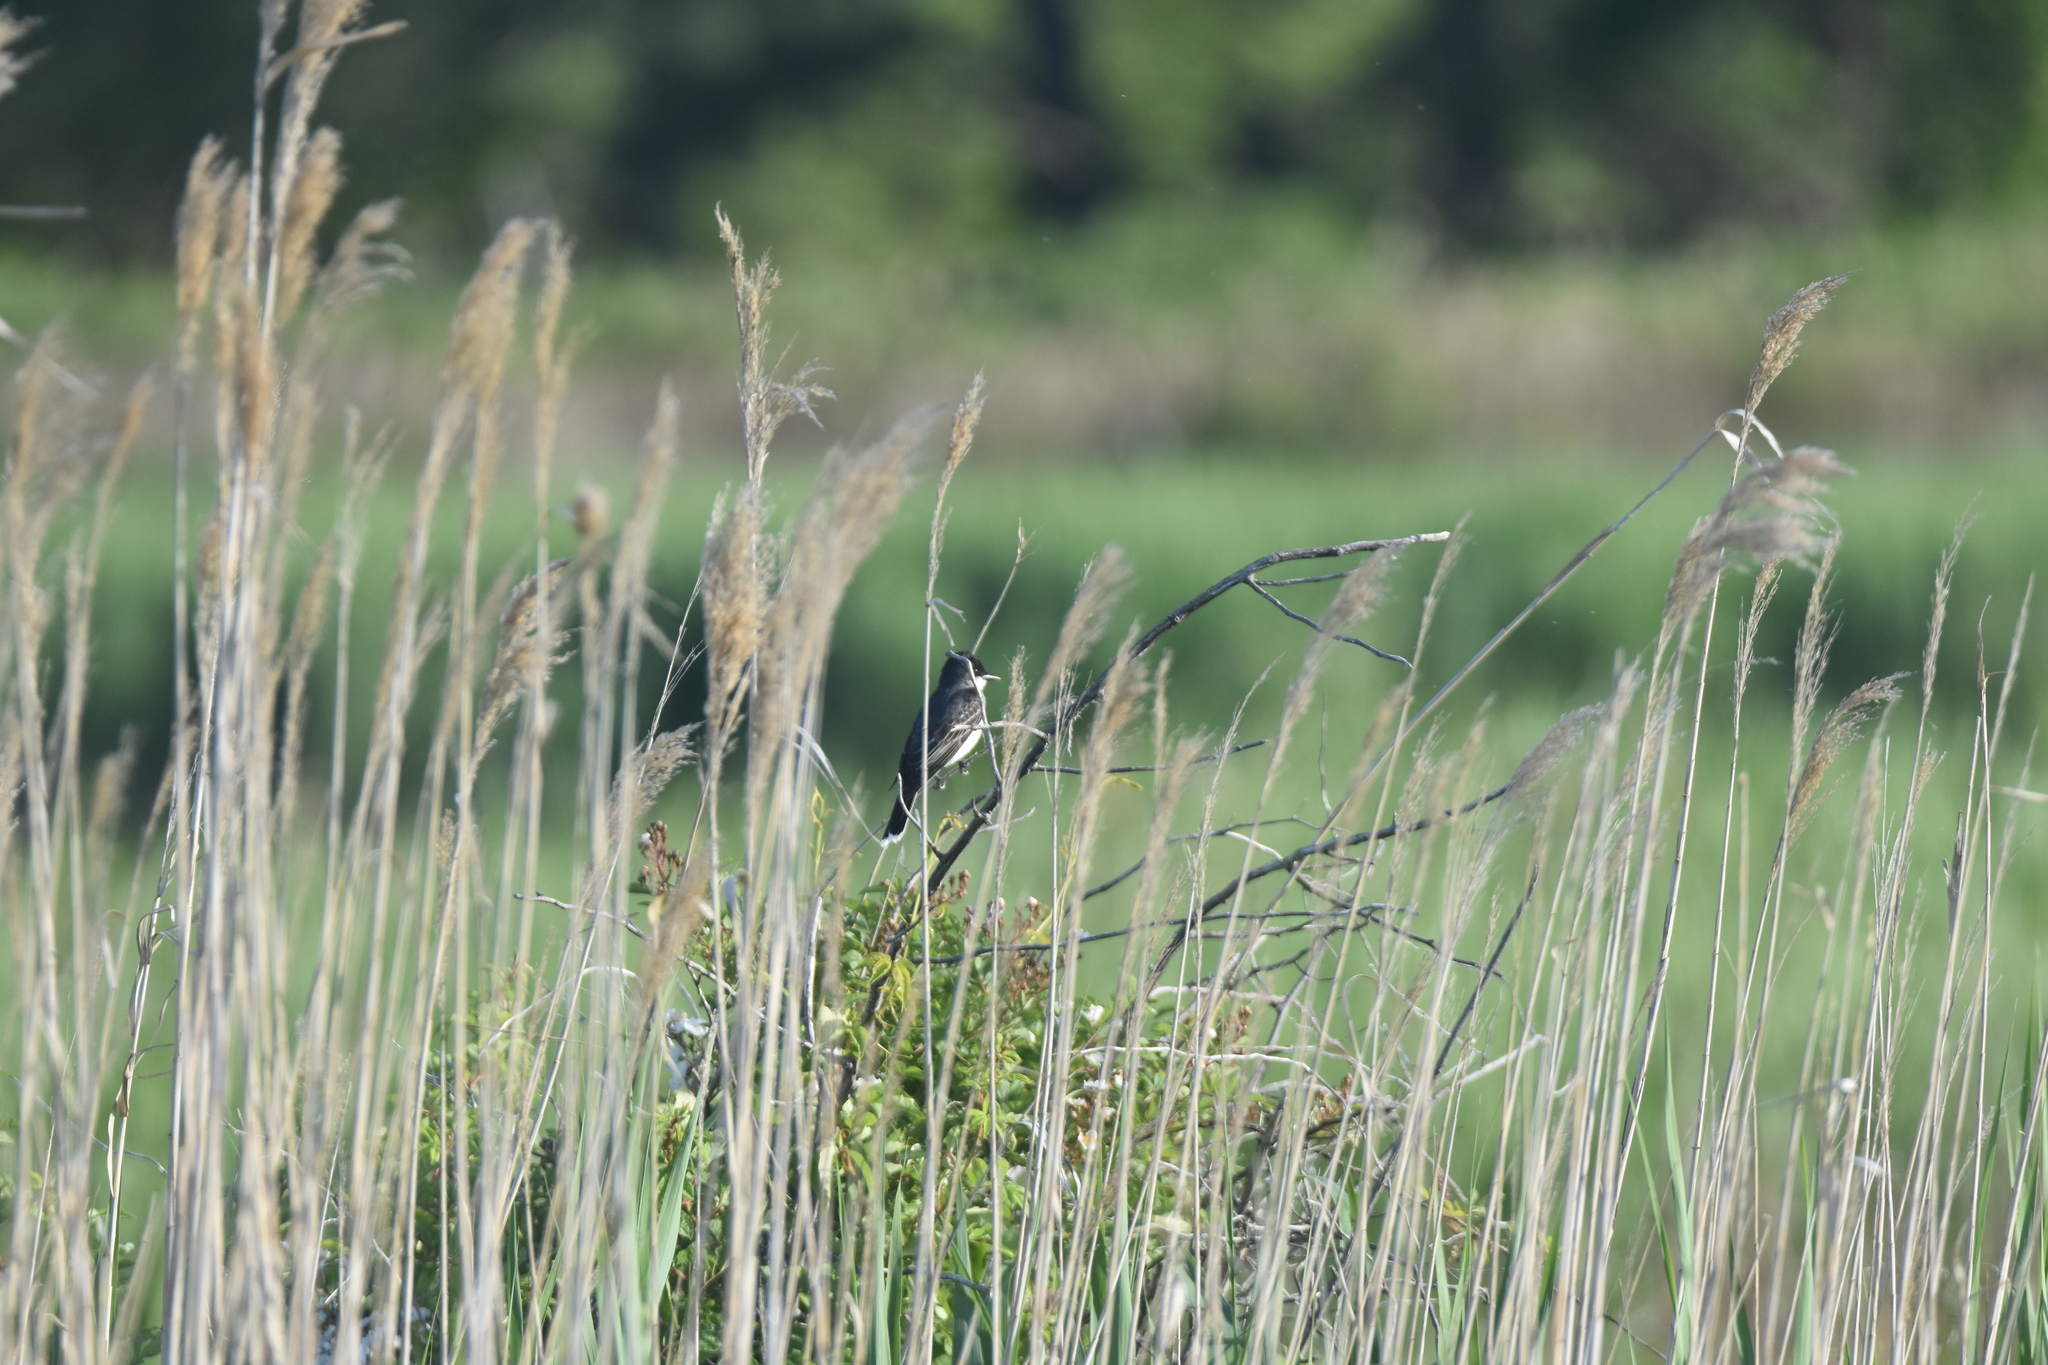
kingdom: Animalia
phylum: Chordata
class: Aves
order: Passeriformes
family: Tyrannidae
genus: Tyrannus
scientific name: Tyrannus tyrannus
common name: Eastern kingbird
